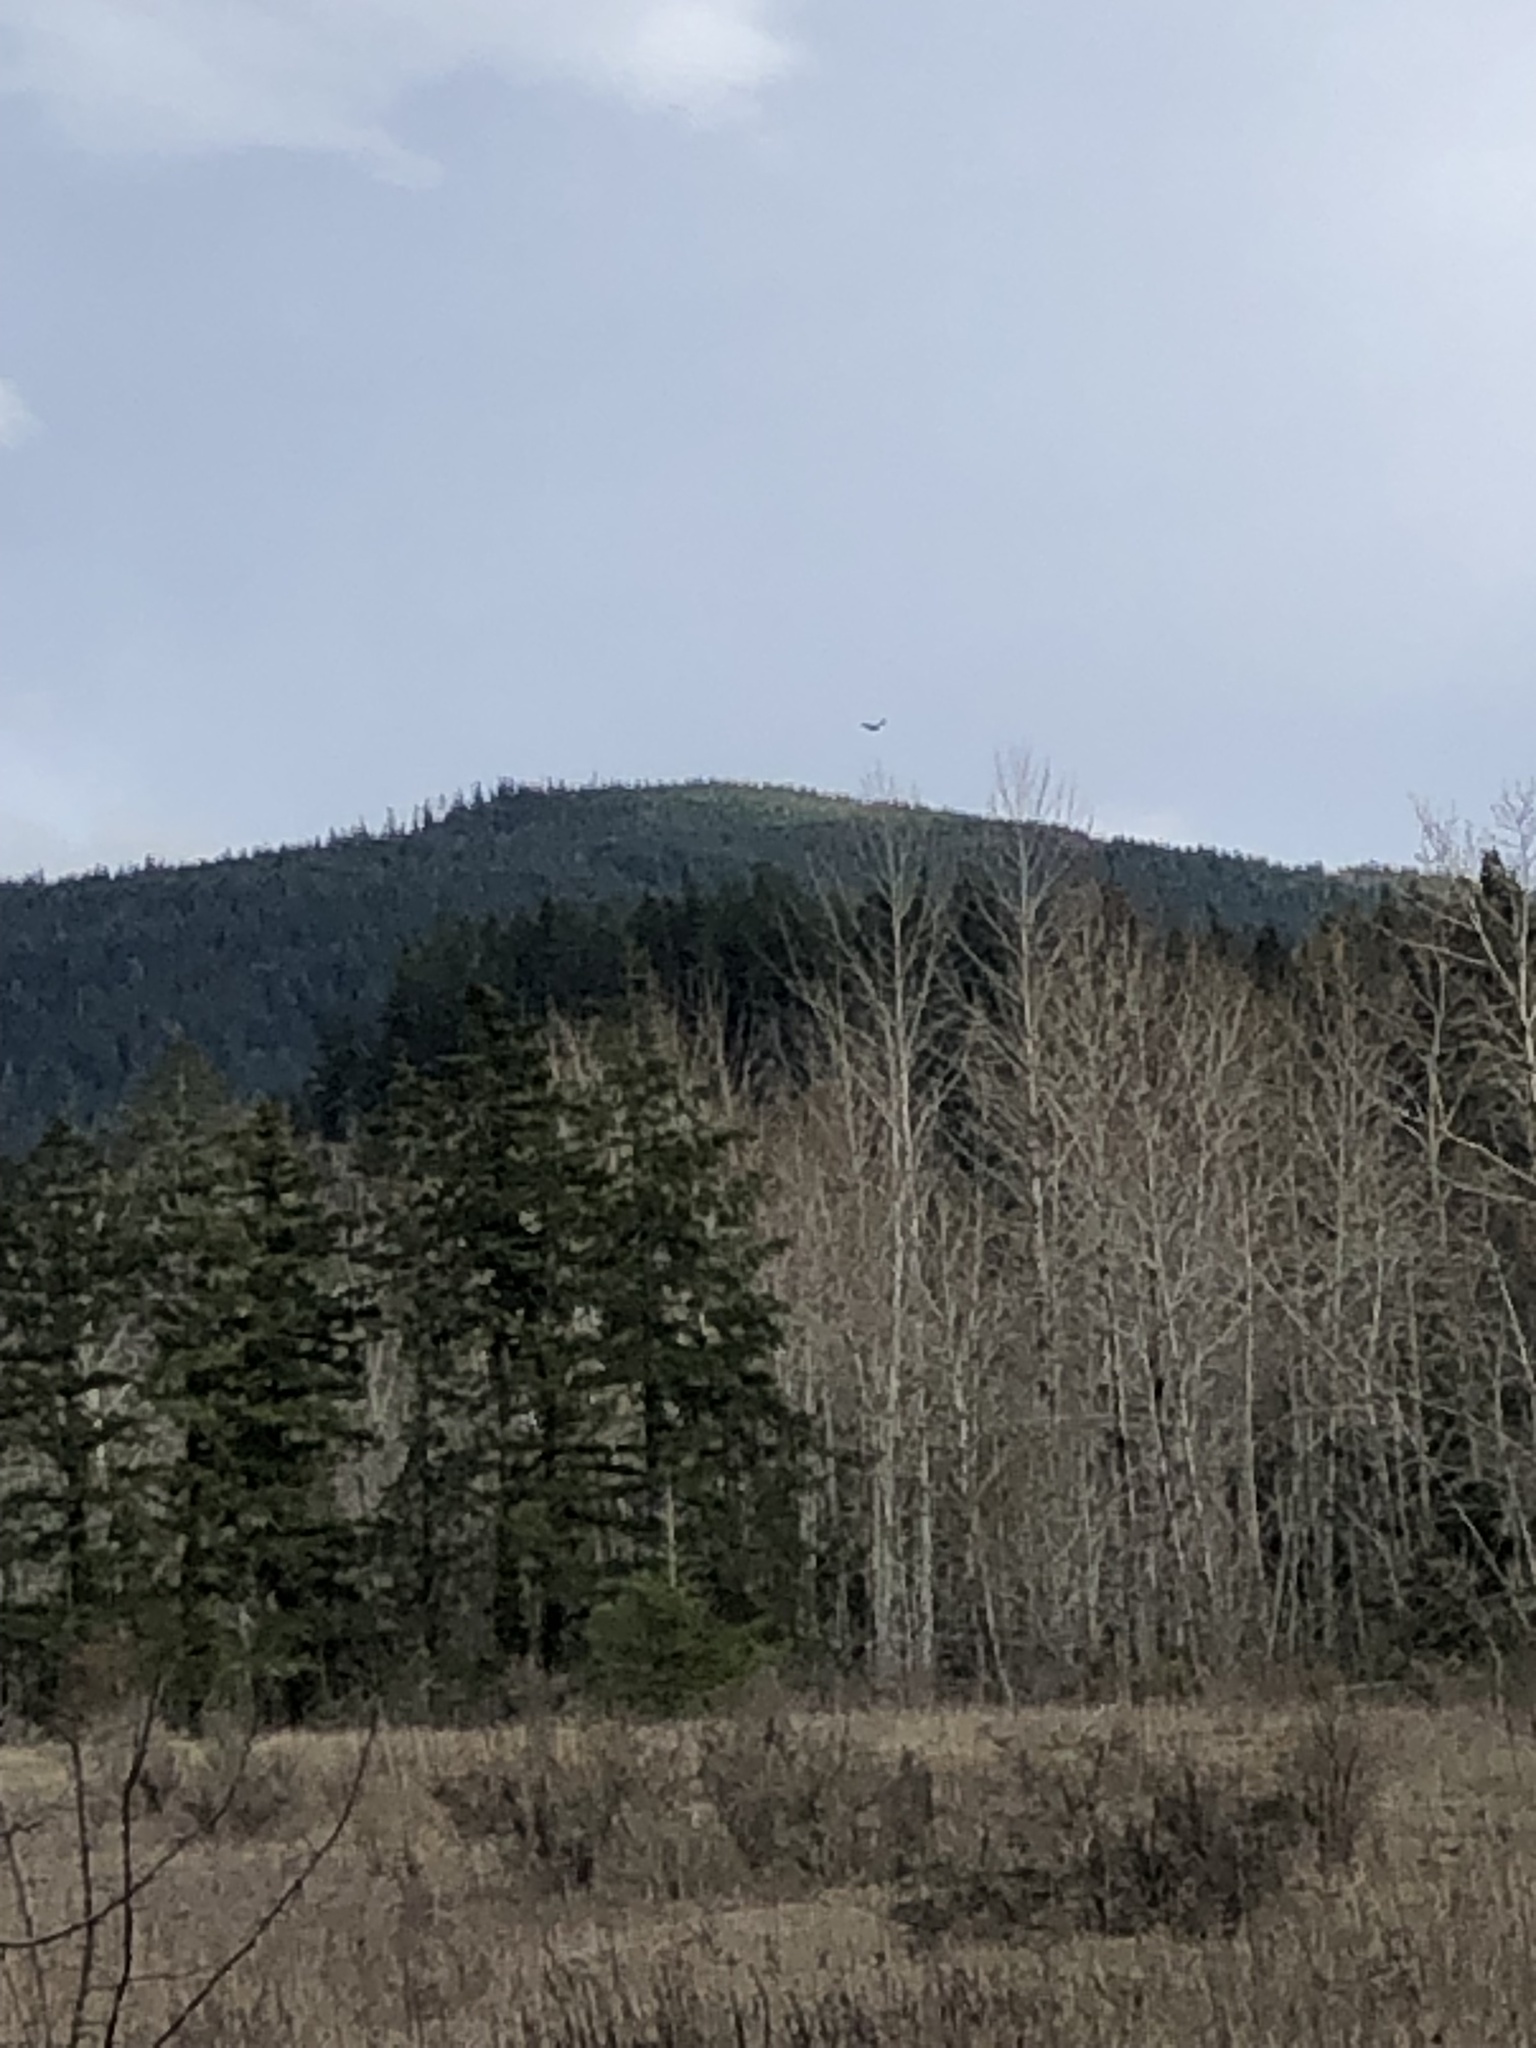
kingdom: Animalia
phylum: Chordata
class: Aves
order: Accipitriformes
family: Cathartidae
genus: Cathartes
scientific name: Cathartes aura
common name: Turkey vulture
